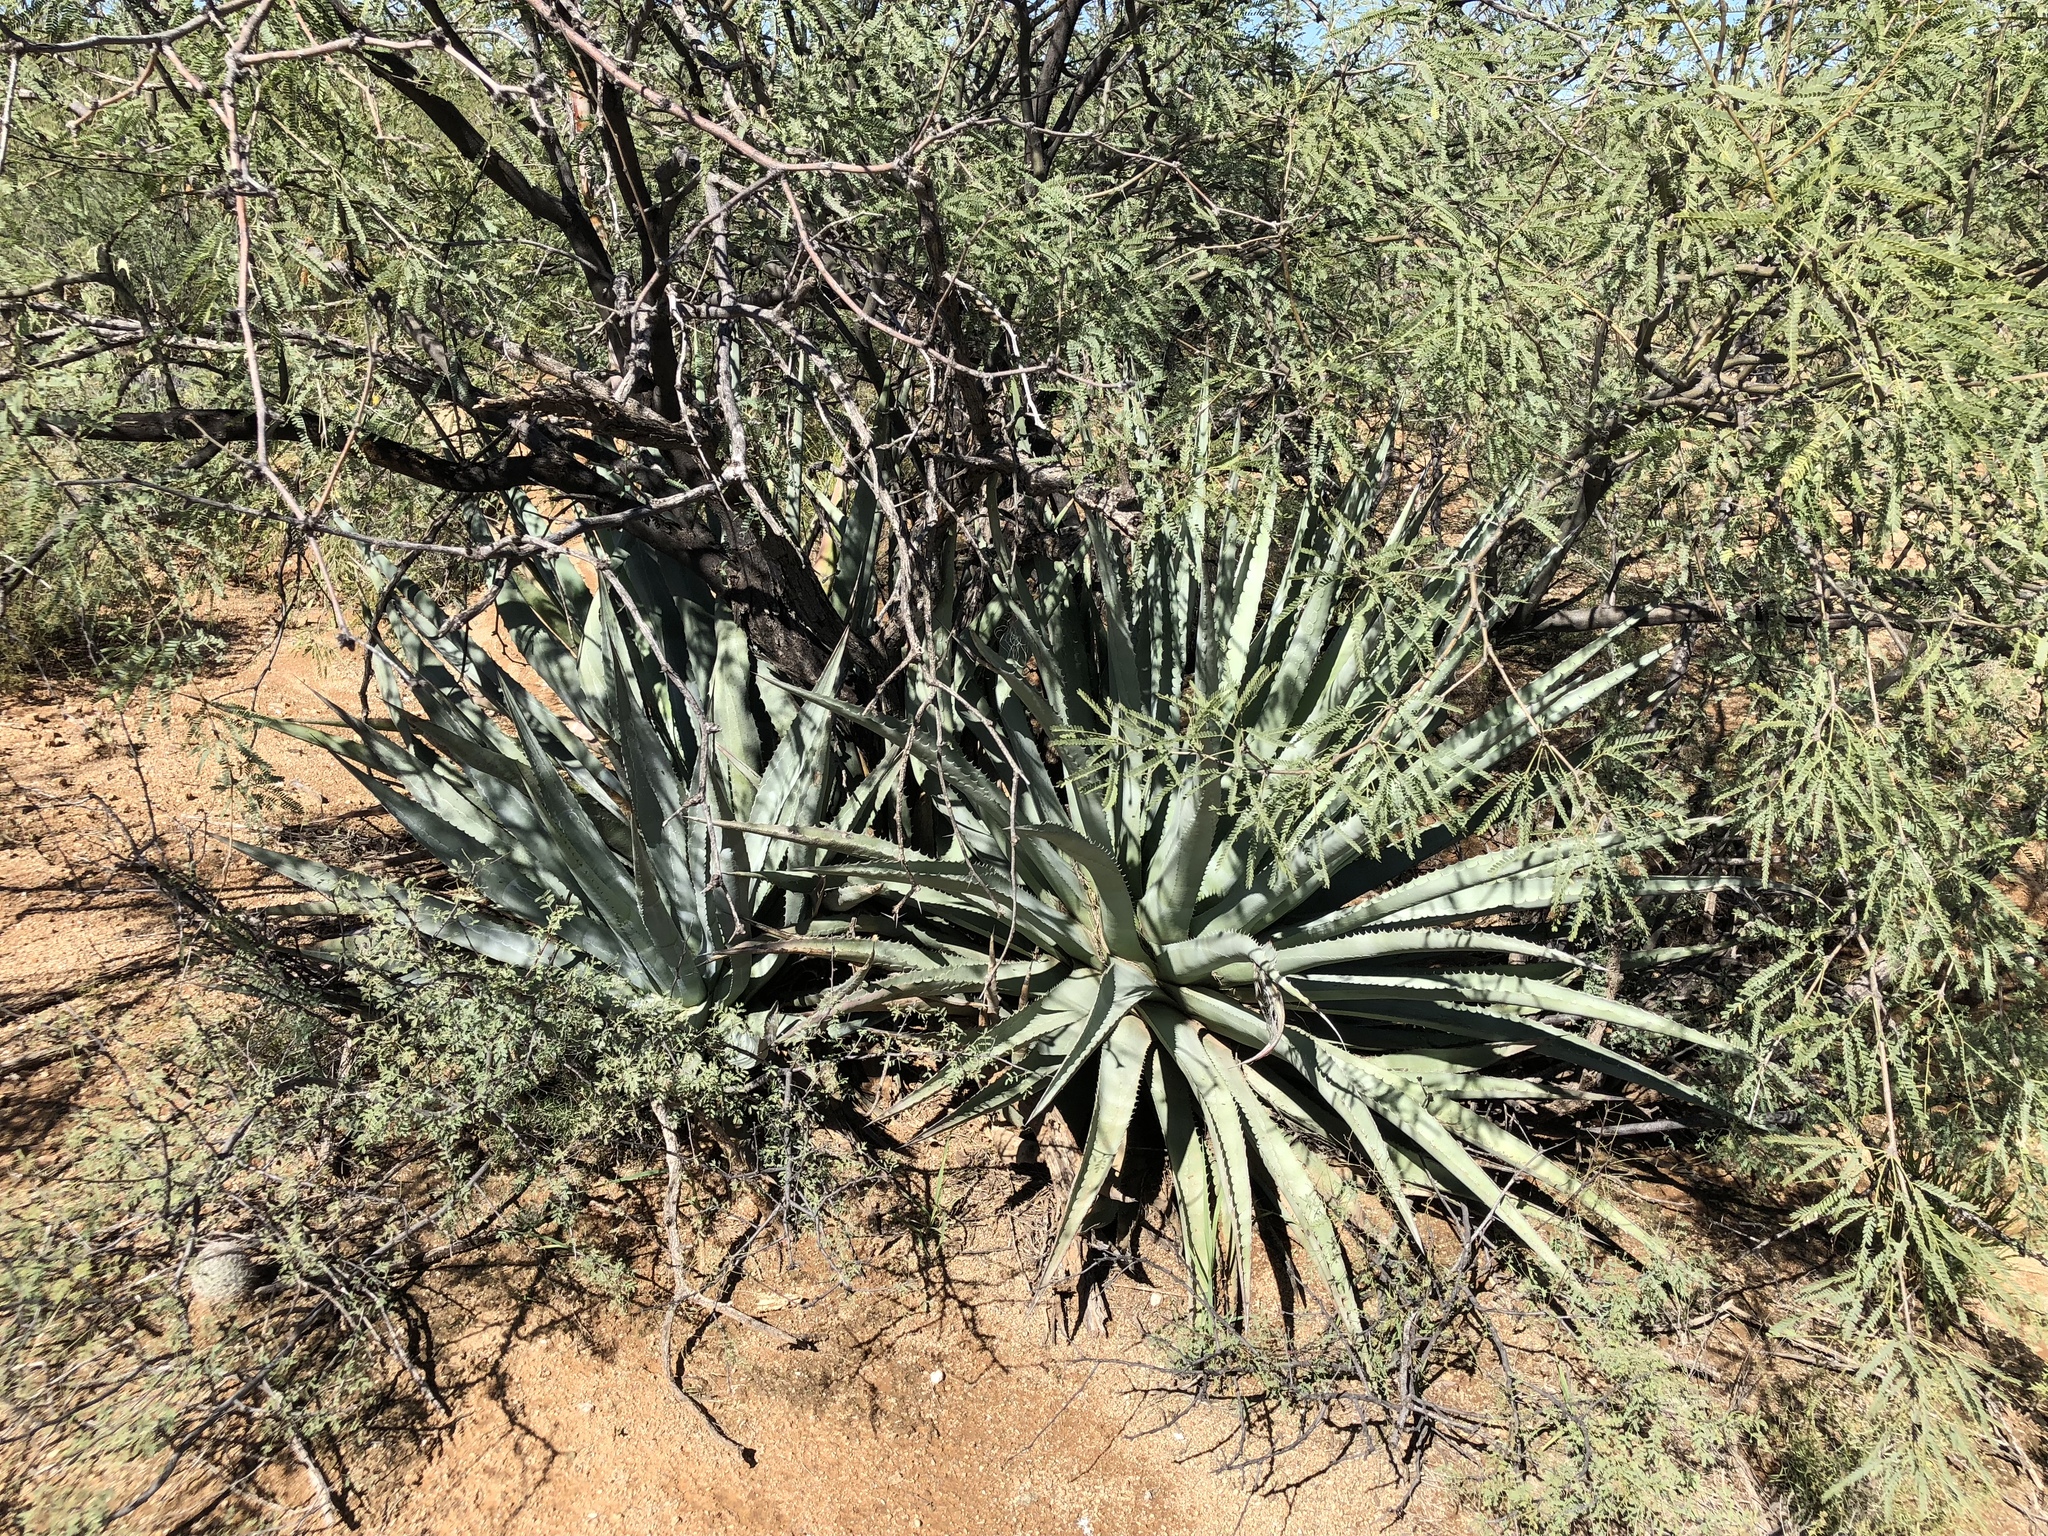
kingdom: Plantae
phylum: Tracheophyta
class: Liliopsida
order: Asparagales
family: Asparagaceae
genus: Agave
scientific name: Agave palmeri
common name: Palmer agave
